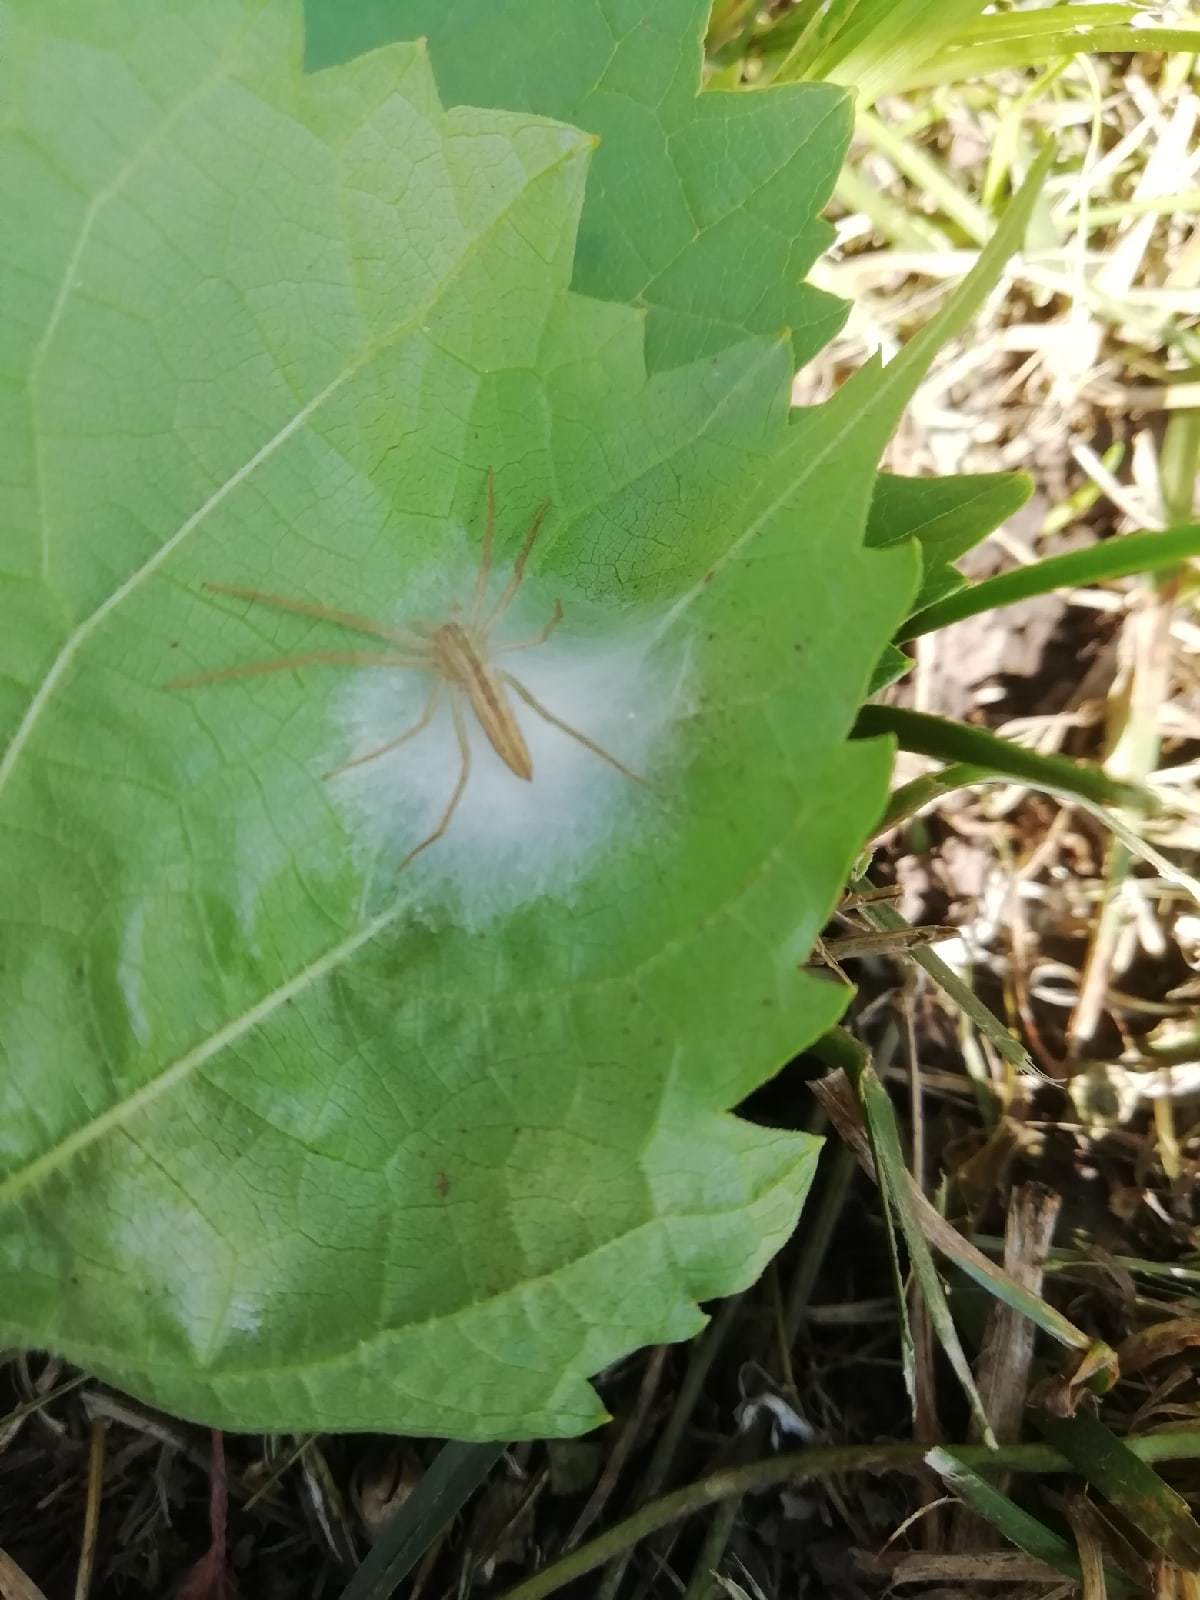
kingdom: Animalia
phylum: Arthropoda
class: Arachnida
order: Araneae
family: Philodromidae
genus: Tibellus
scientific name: Tibellus oblongus
